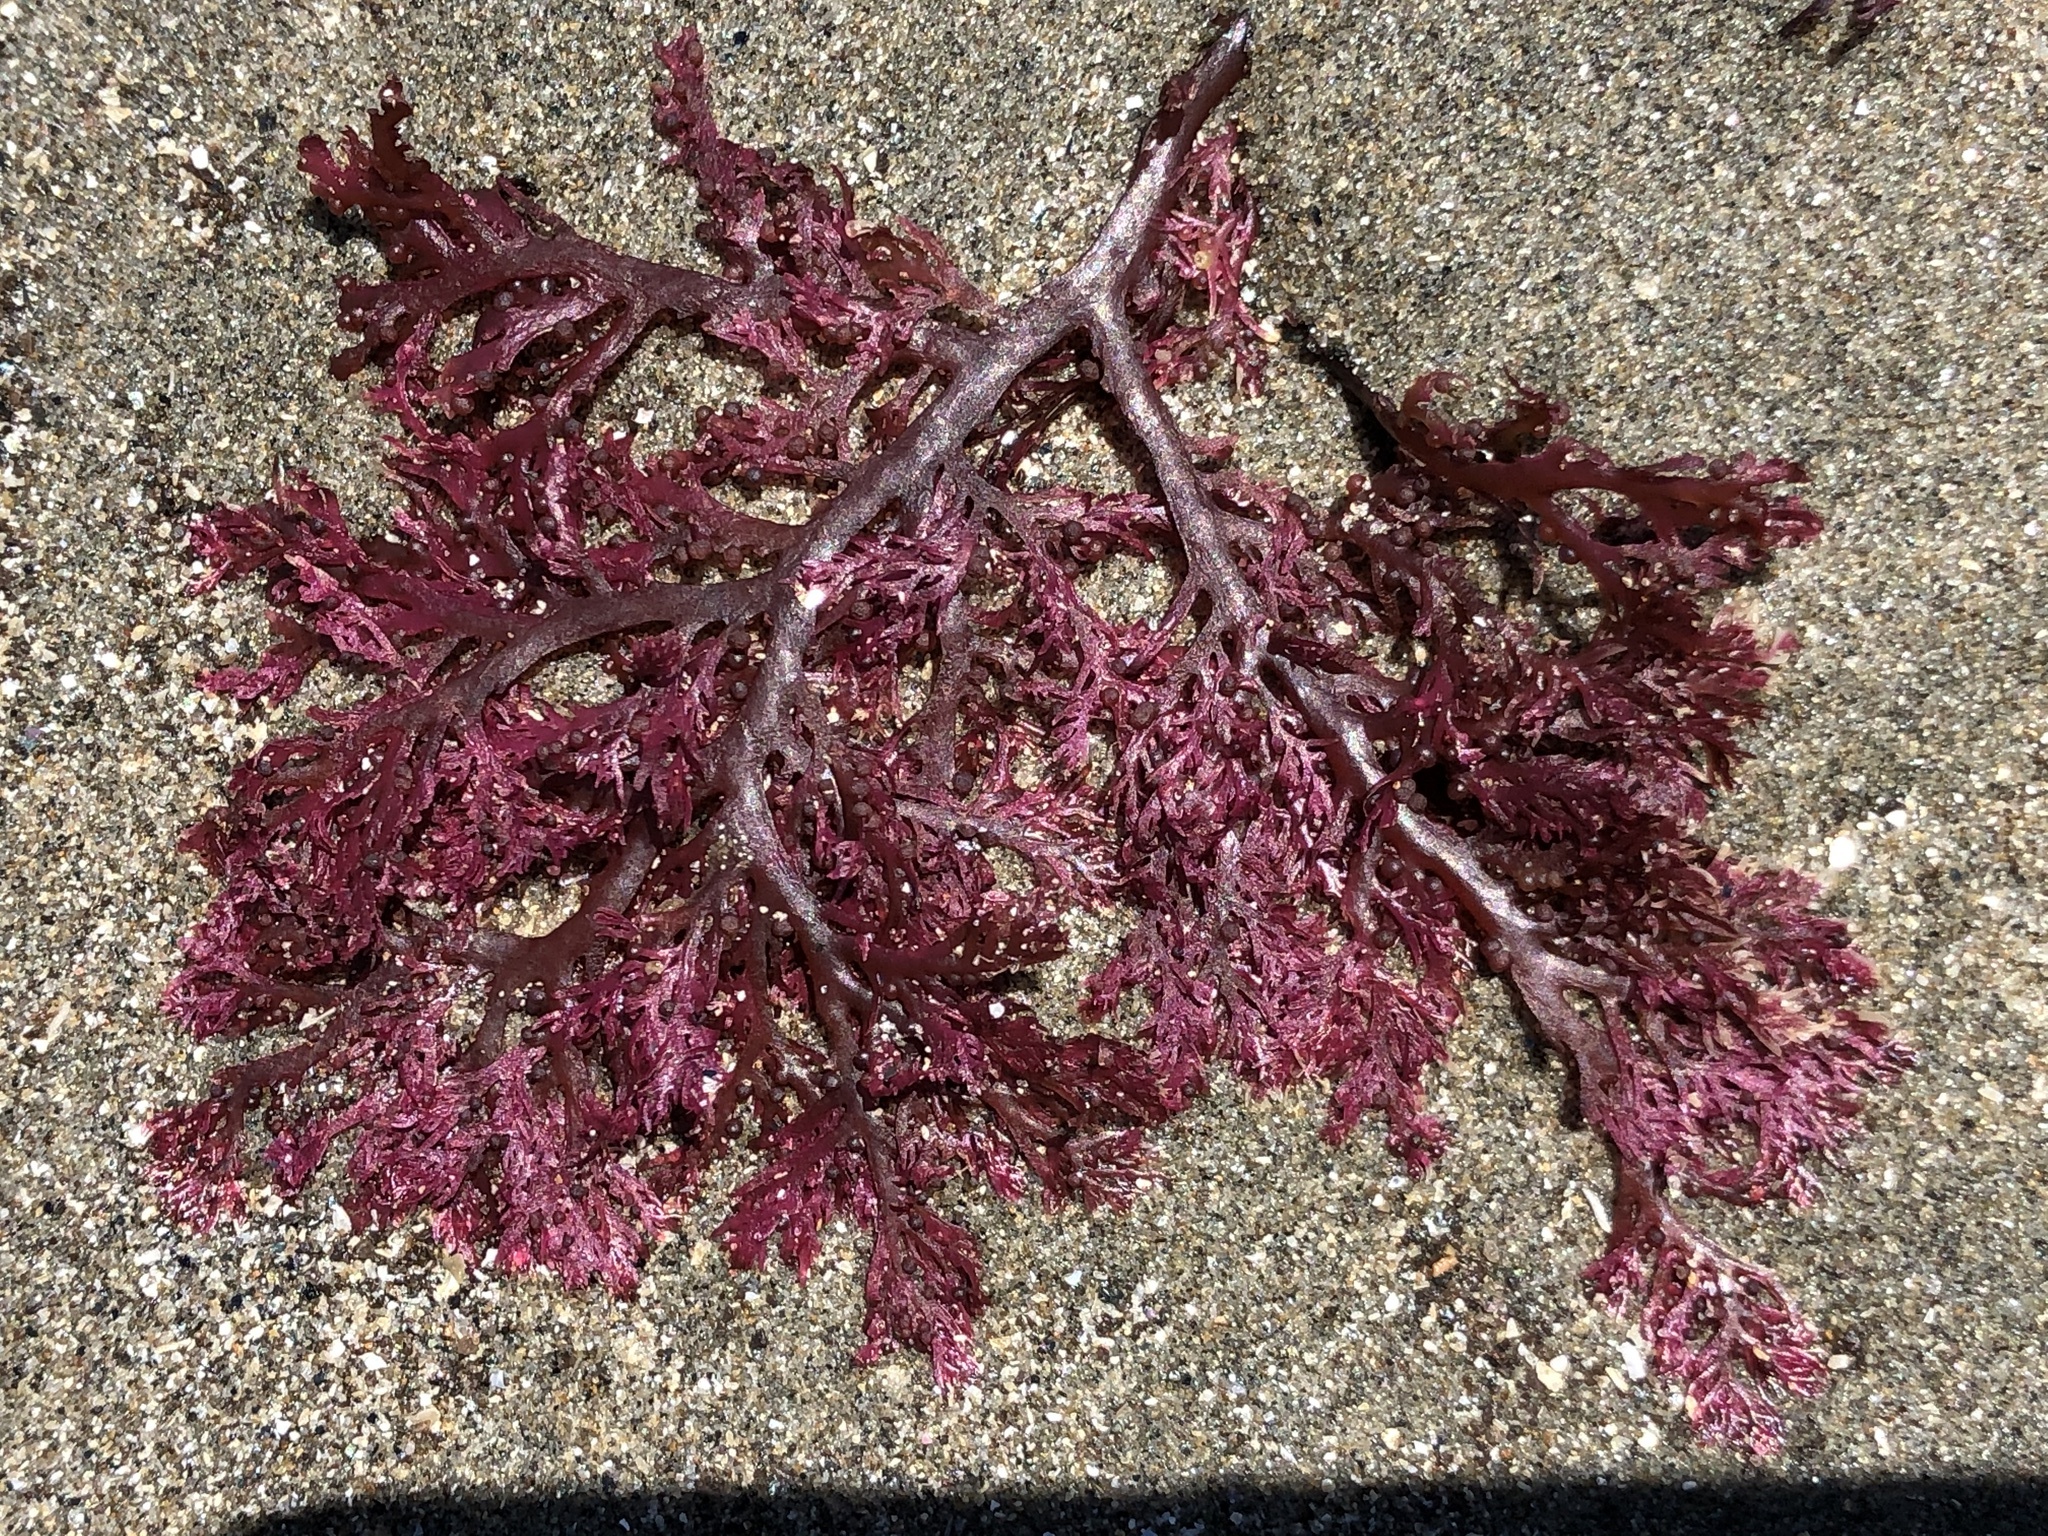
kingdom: Plantae
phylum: Rhodophyta
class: Florideophyceae
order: Plocamiales
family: Plocamiaceae
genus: Plocamium
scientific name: Plocamium cartilagineum
